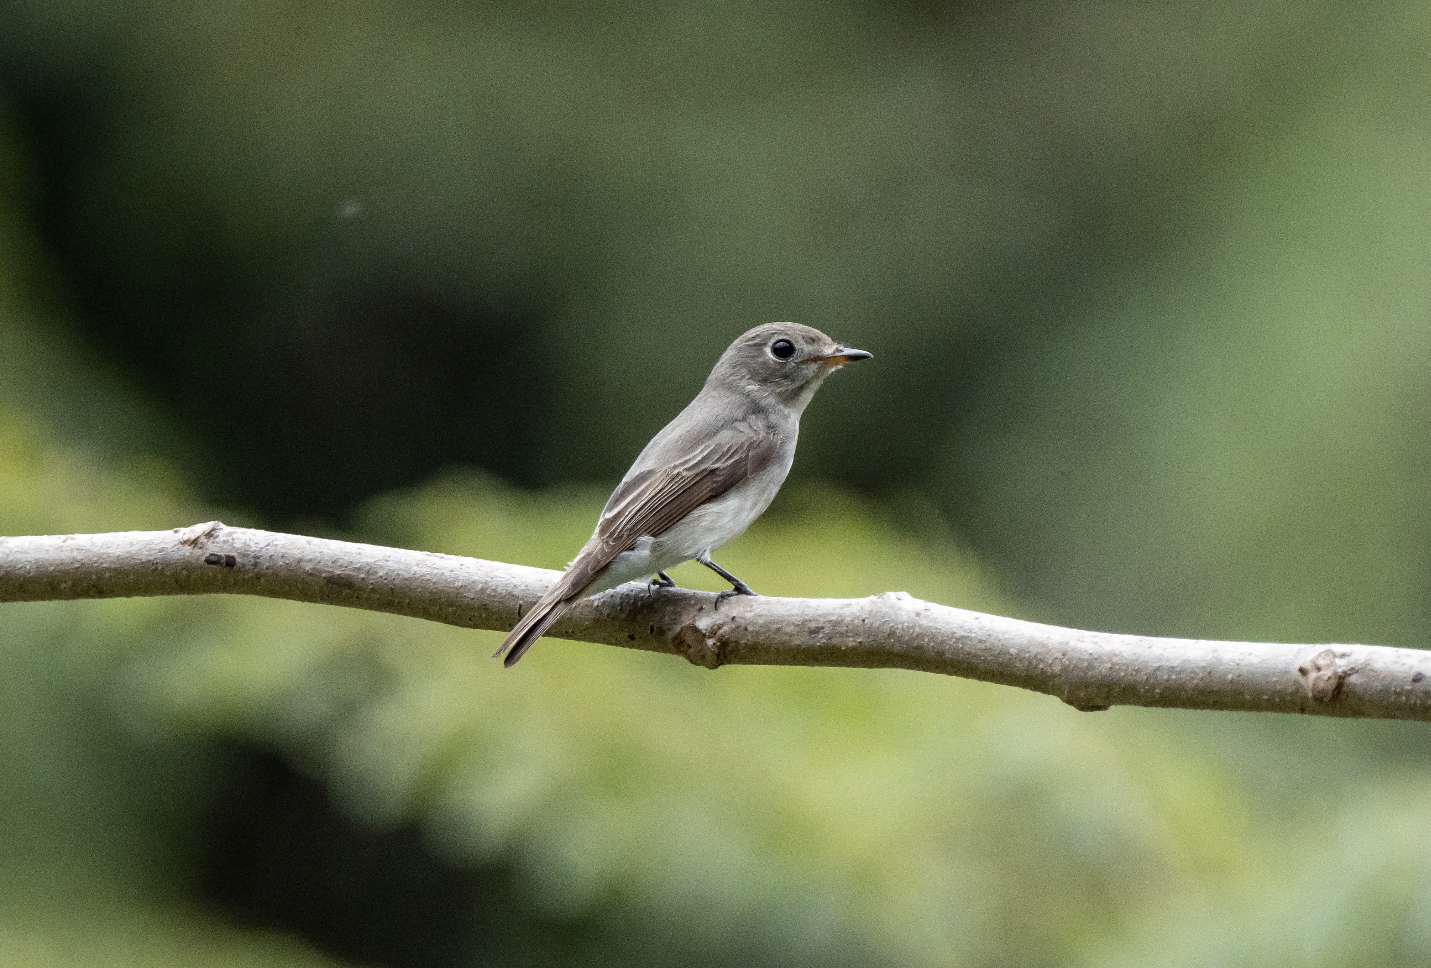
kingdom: Animalia
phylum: Chordata
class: Aves
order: Passeriformes
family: Muscicapidae
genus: Muscicapa
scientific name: Muscicapa latirostris
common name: Asian brown flycatcher
